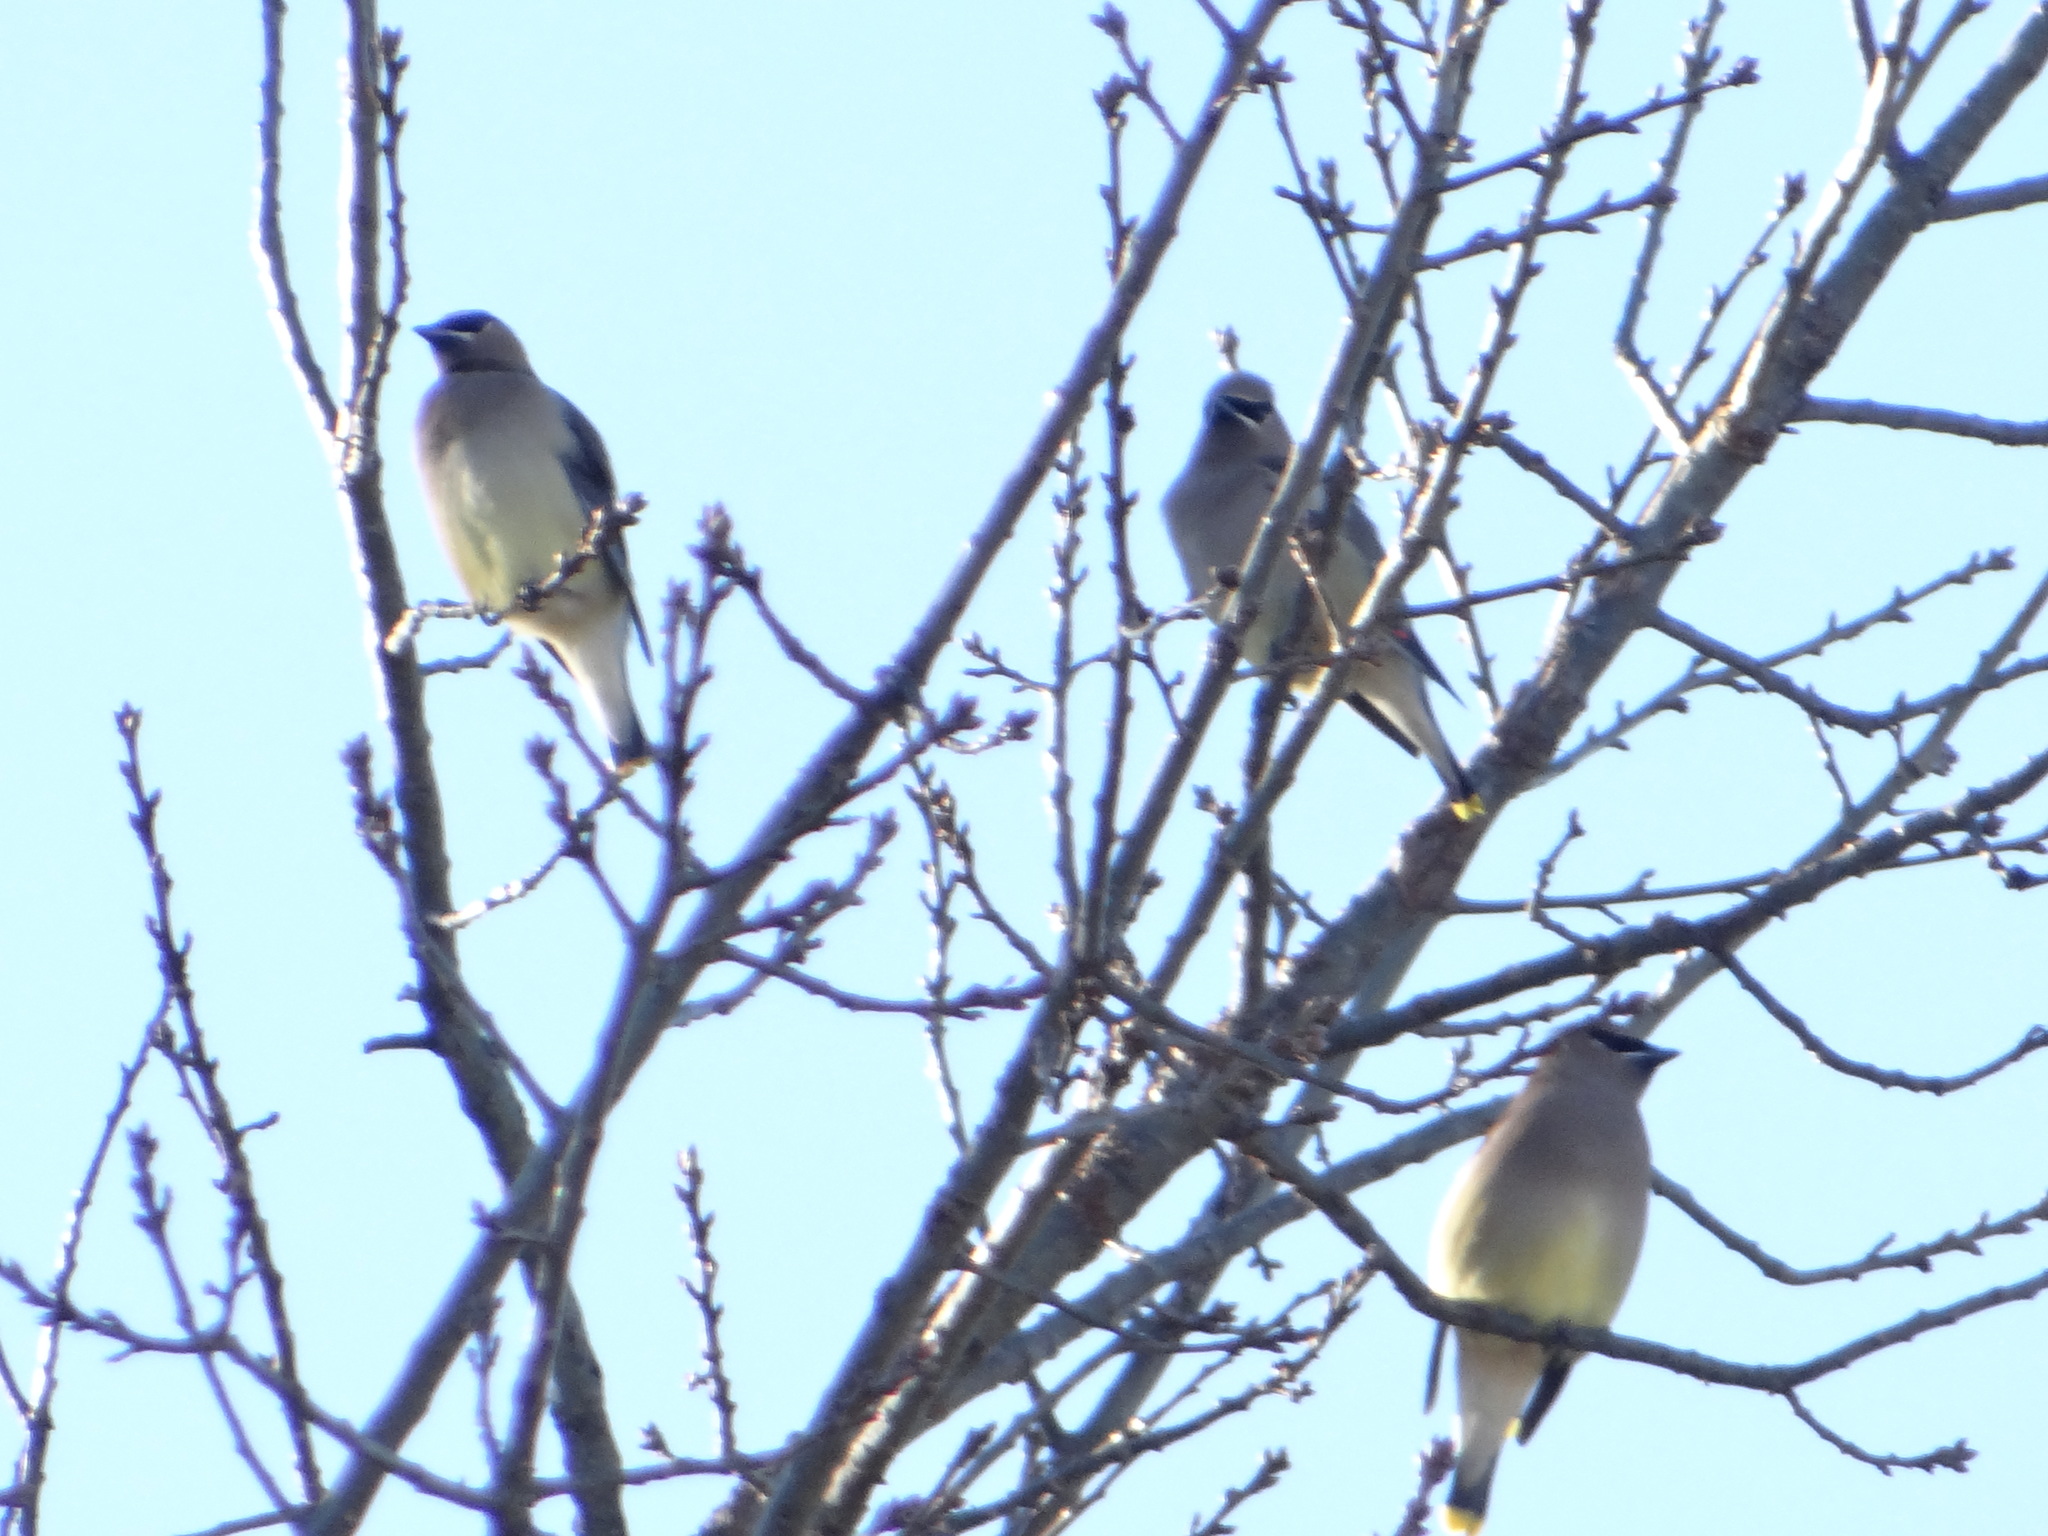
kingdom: Animalia
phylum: Chordata
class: Aves
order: Passeriformes
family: Bombycillidae
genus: Bombycilla
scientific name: Bombycilla cedrorum
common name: Cedar waxwing
